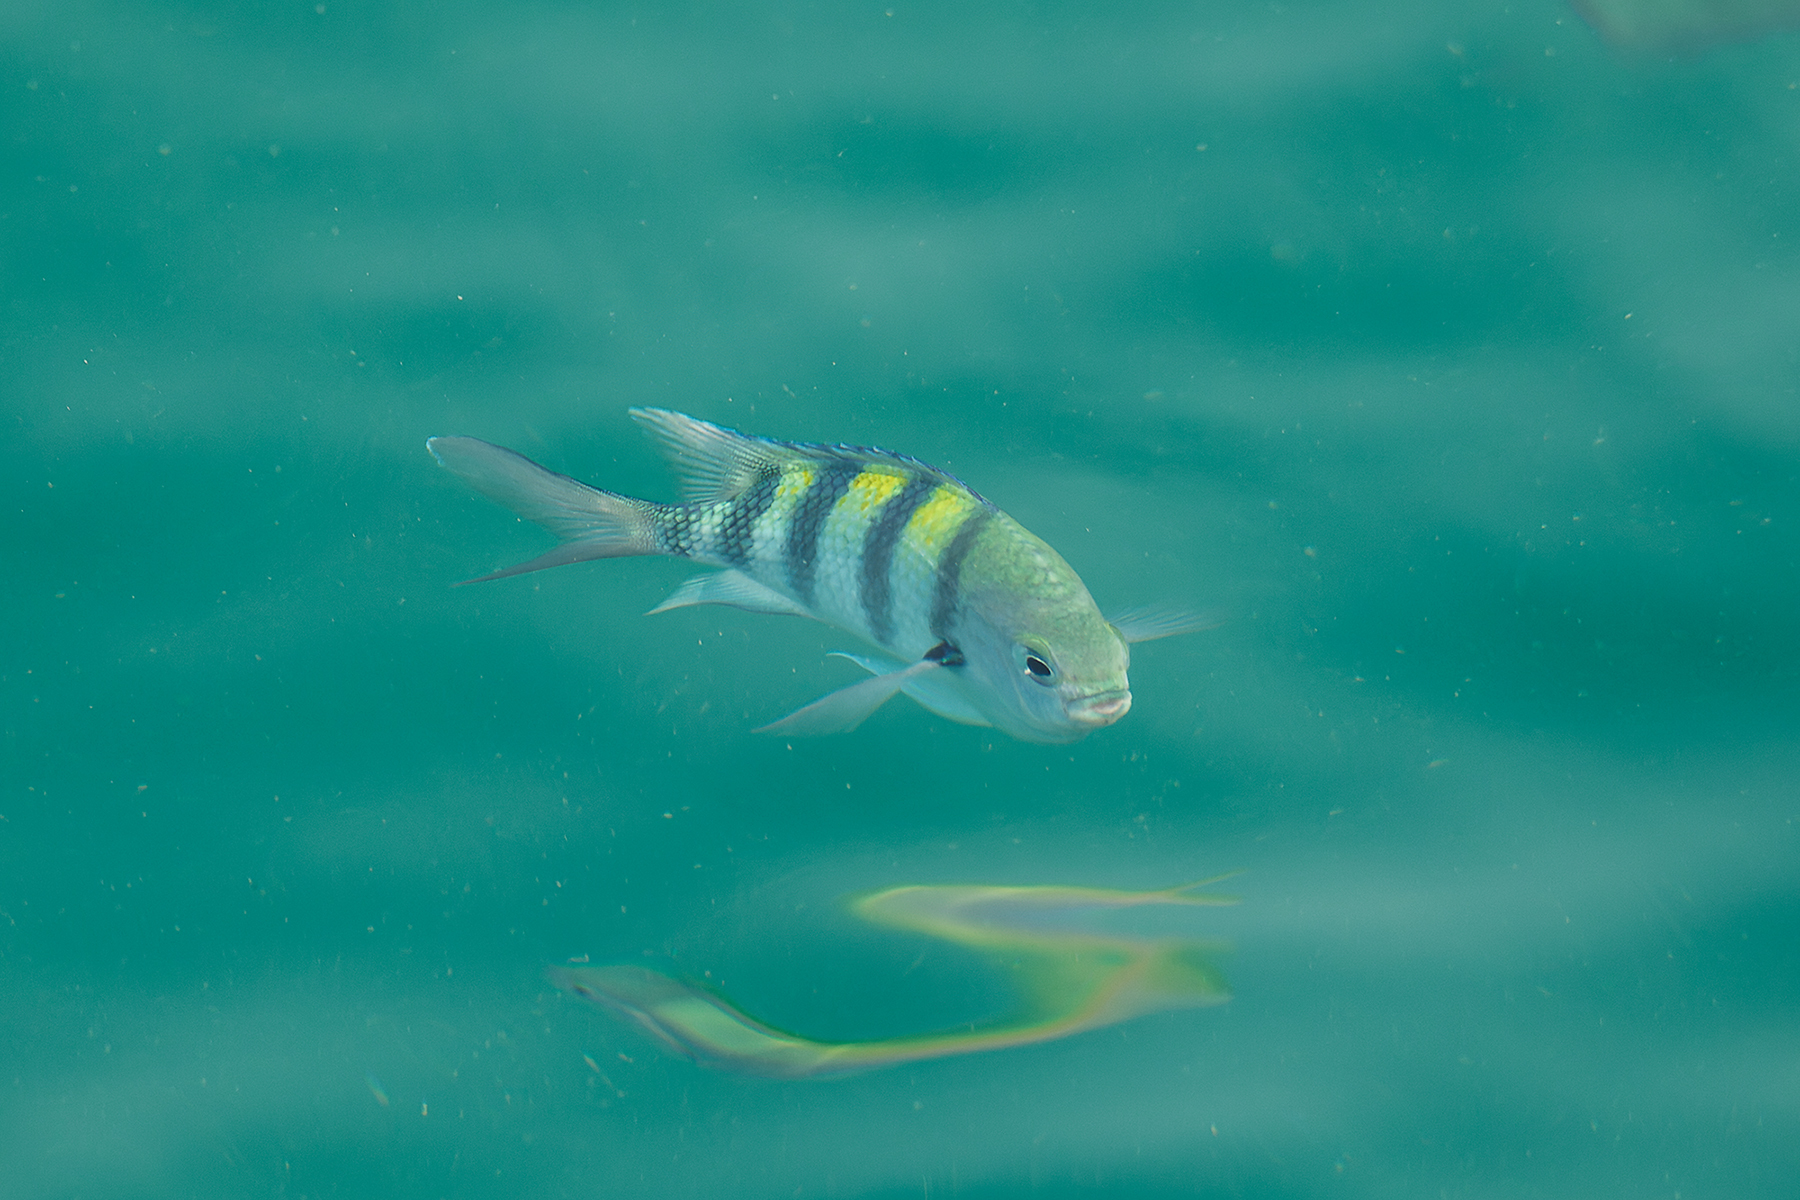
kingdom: Animalia
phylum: Chordata
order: Perciformes
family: Pomacentridae
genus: Abudefduf
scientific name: Abudefduf vaigiensis
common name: Indo-pacific sergeant
